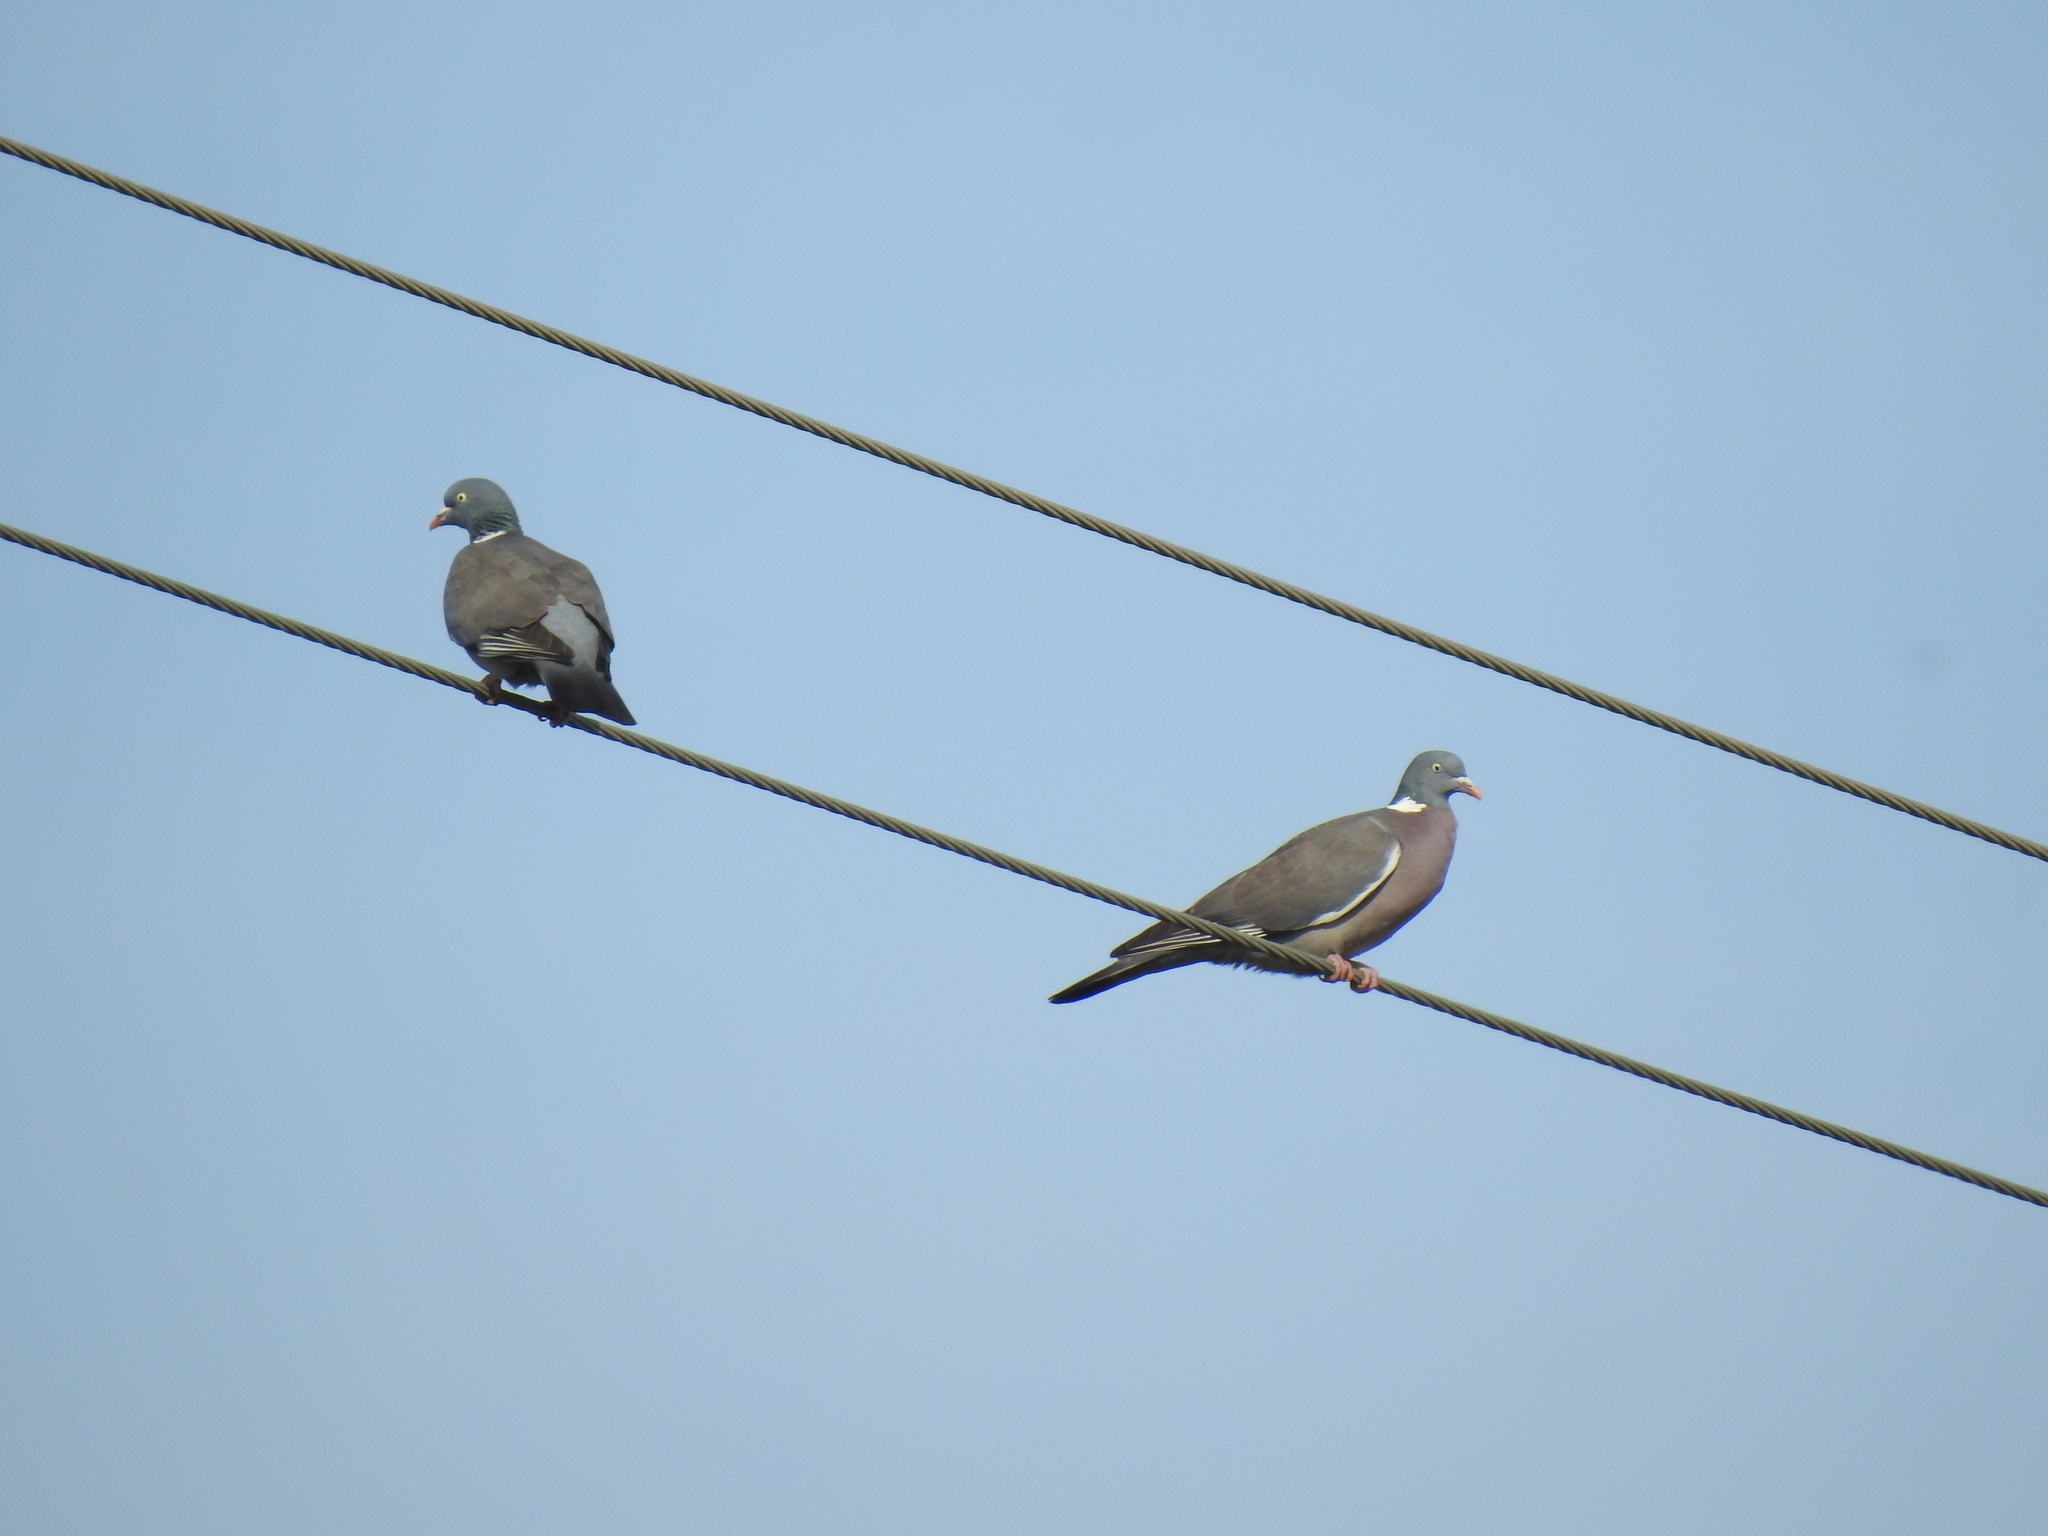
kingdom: Animalia
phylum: Chordata
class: Aves
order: Columbiformes
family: Columbidae
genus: Columba
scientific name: Columba palumbus
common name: Common wood pigeon
